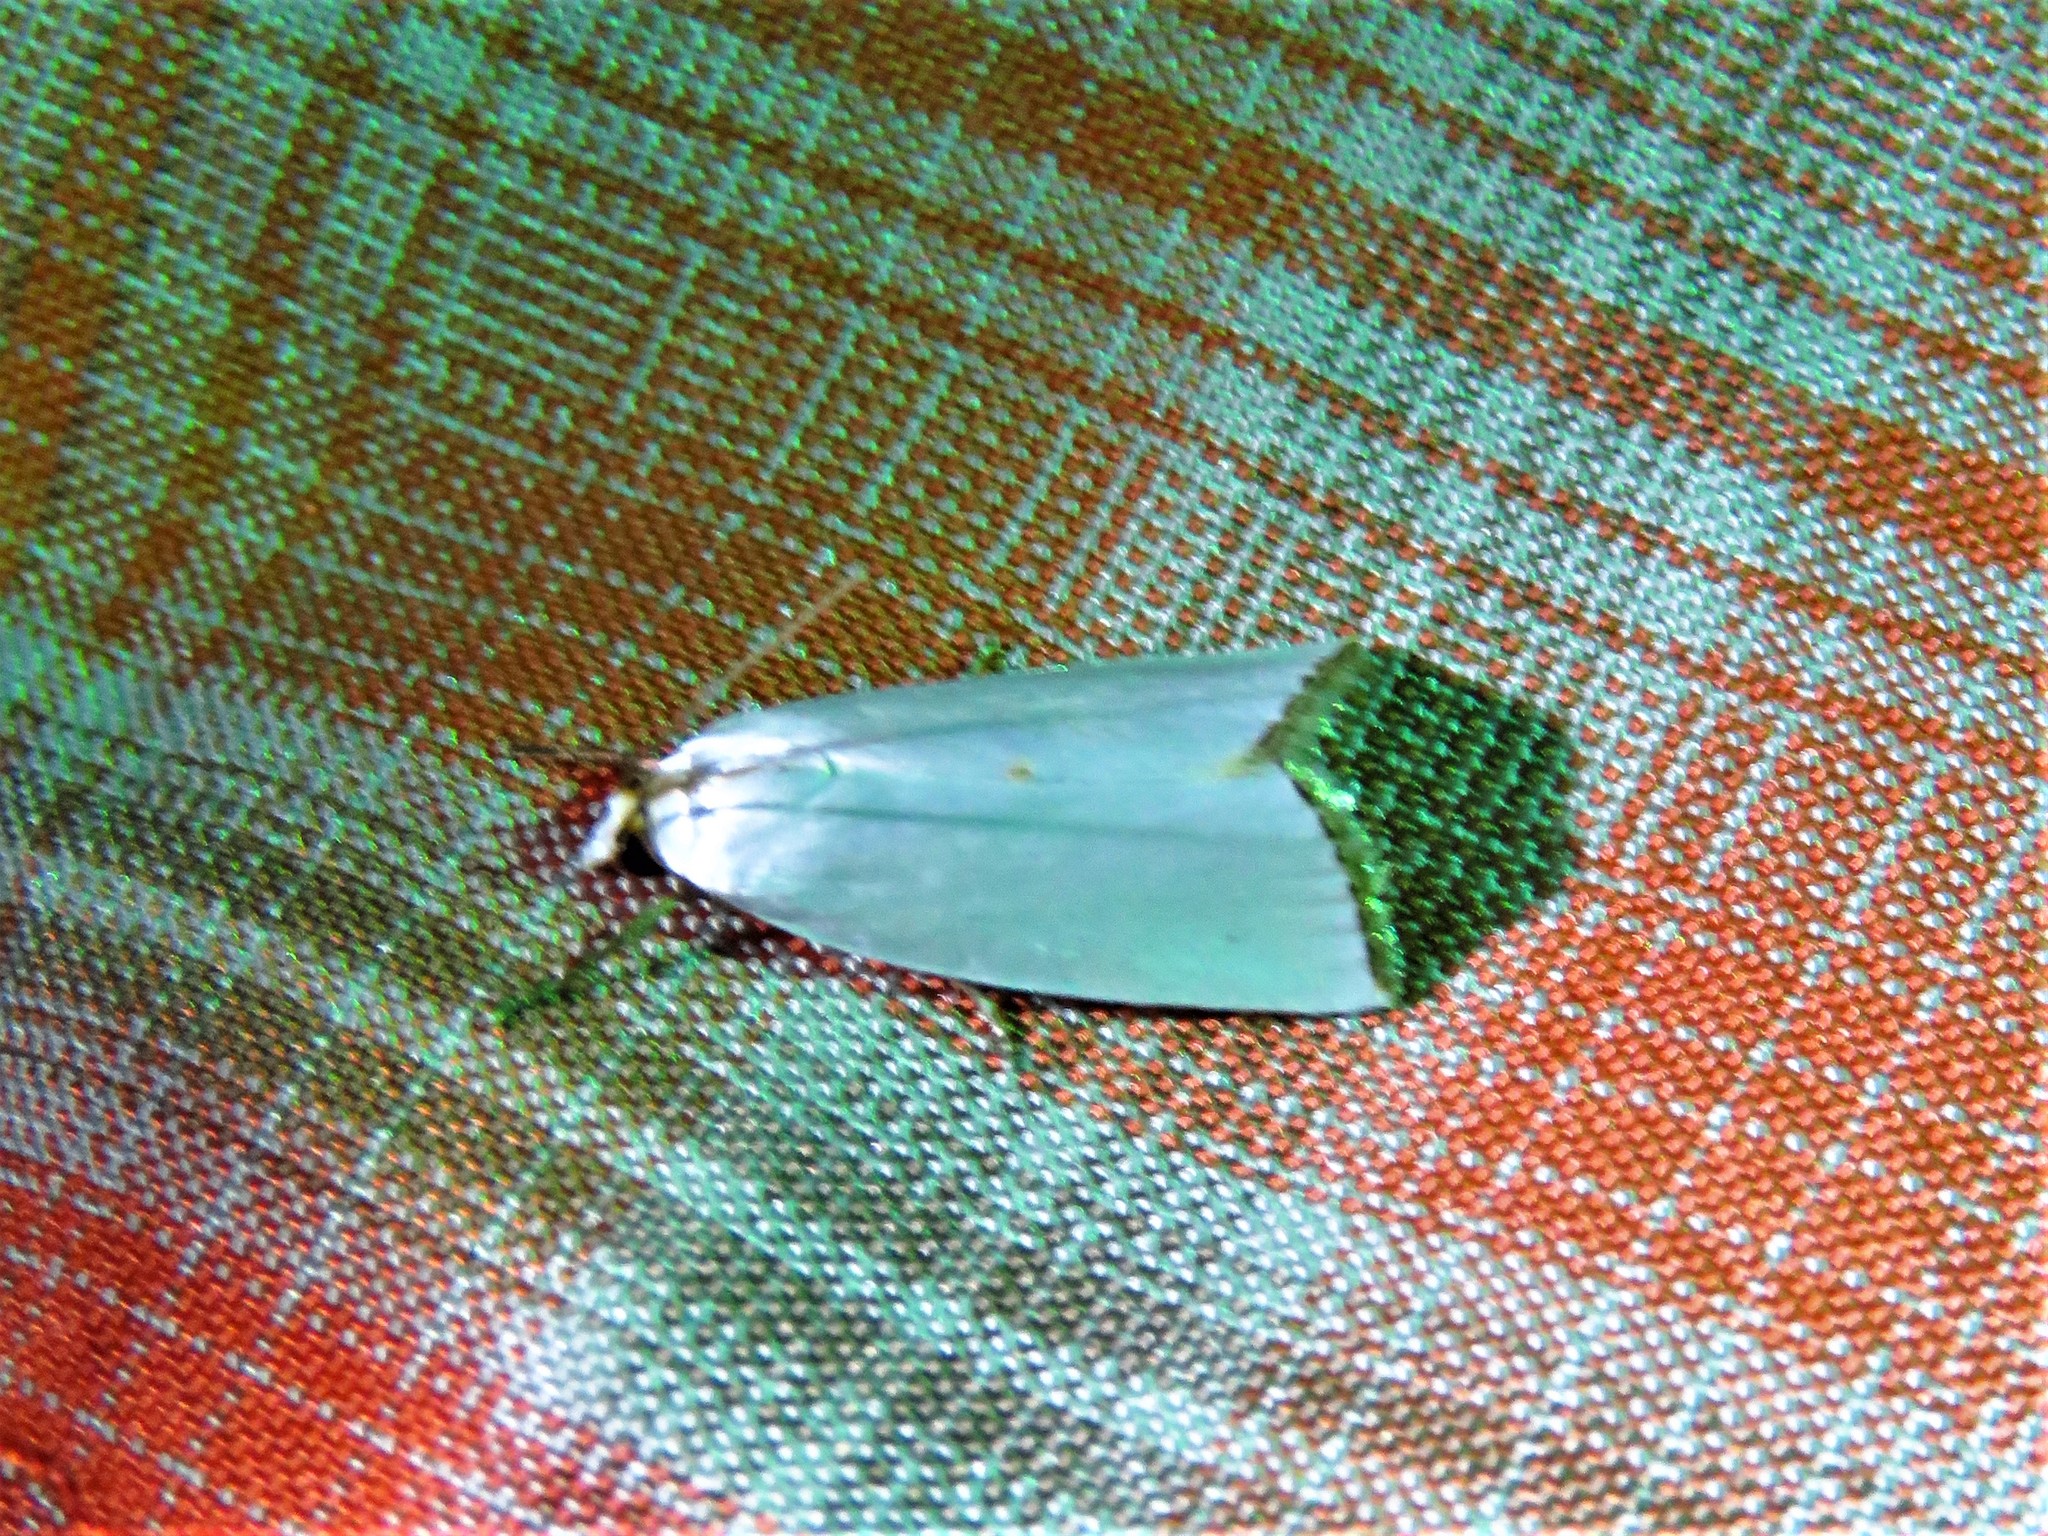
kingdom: Animalia
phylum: Arthropoda
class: Insecta
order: Lepidoptera
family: Crambidae
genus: Argyria
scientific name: Argyria nivalis
